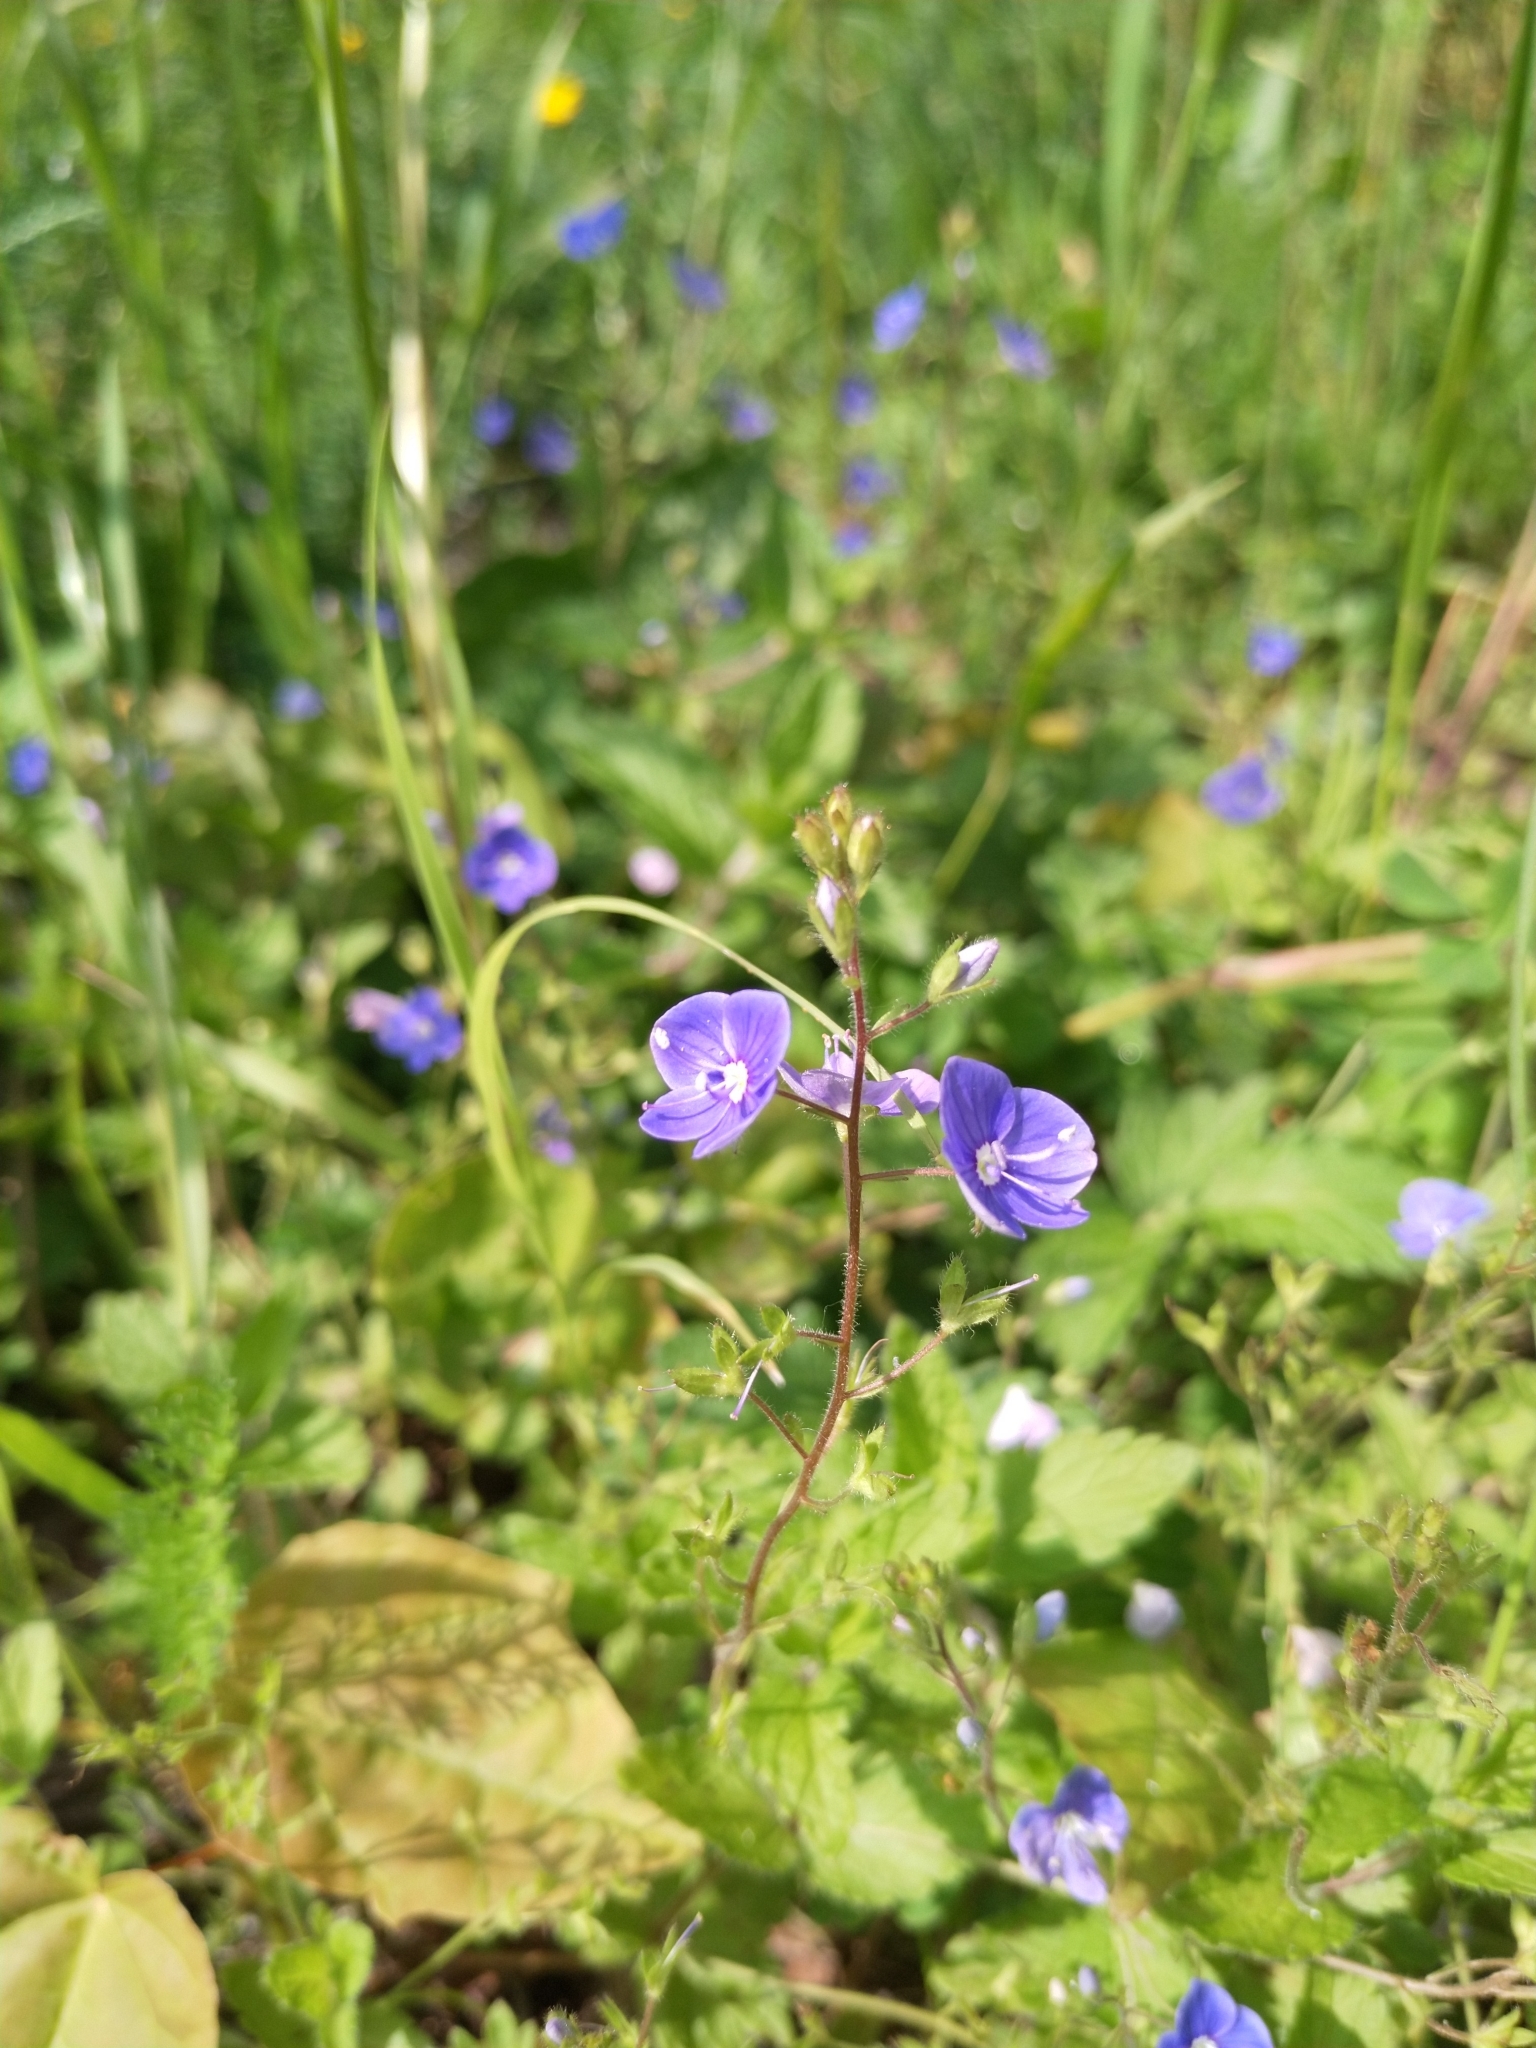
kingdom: Plantae
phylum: Tracheophyta
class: Magnoliopsida
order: Lamiales
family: Plantaginaceae
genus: Veronica
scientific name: Veronica chamaedrys
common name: Germander speedwell
